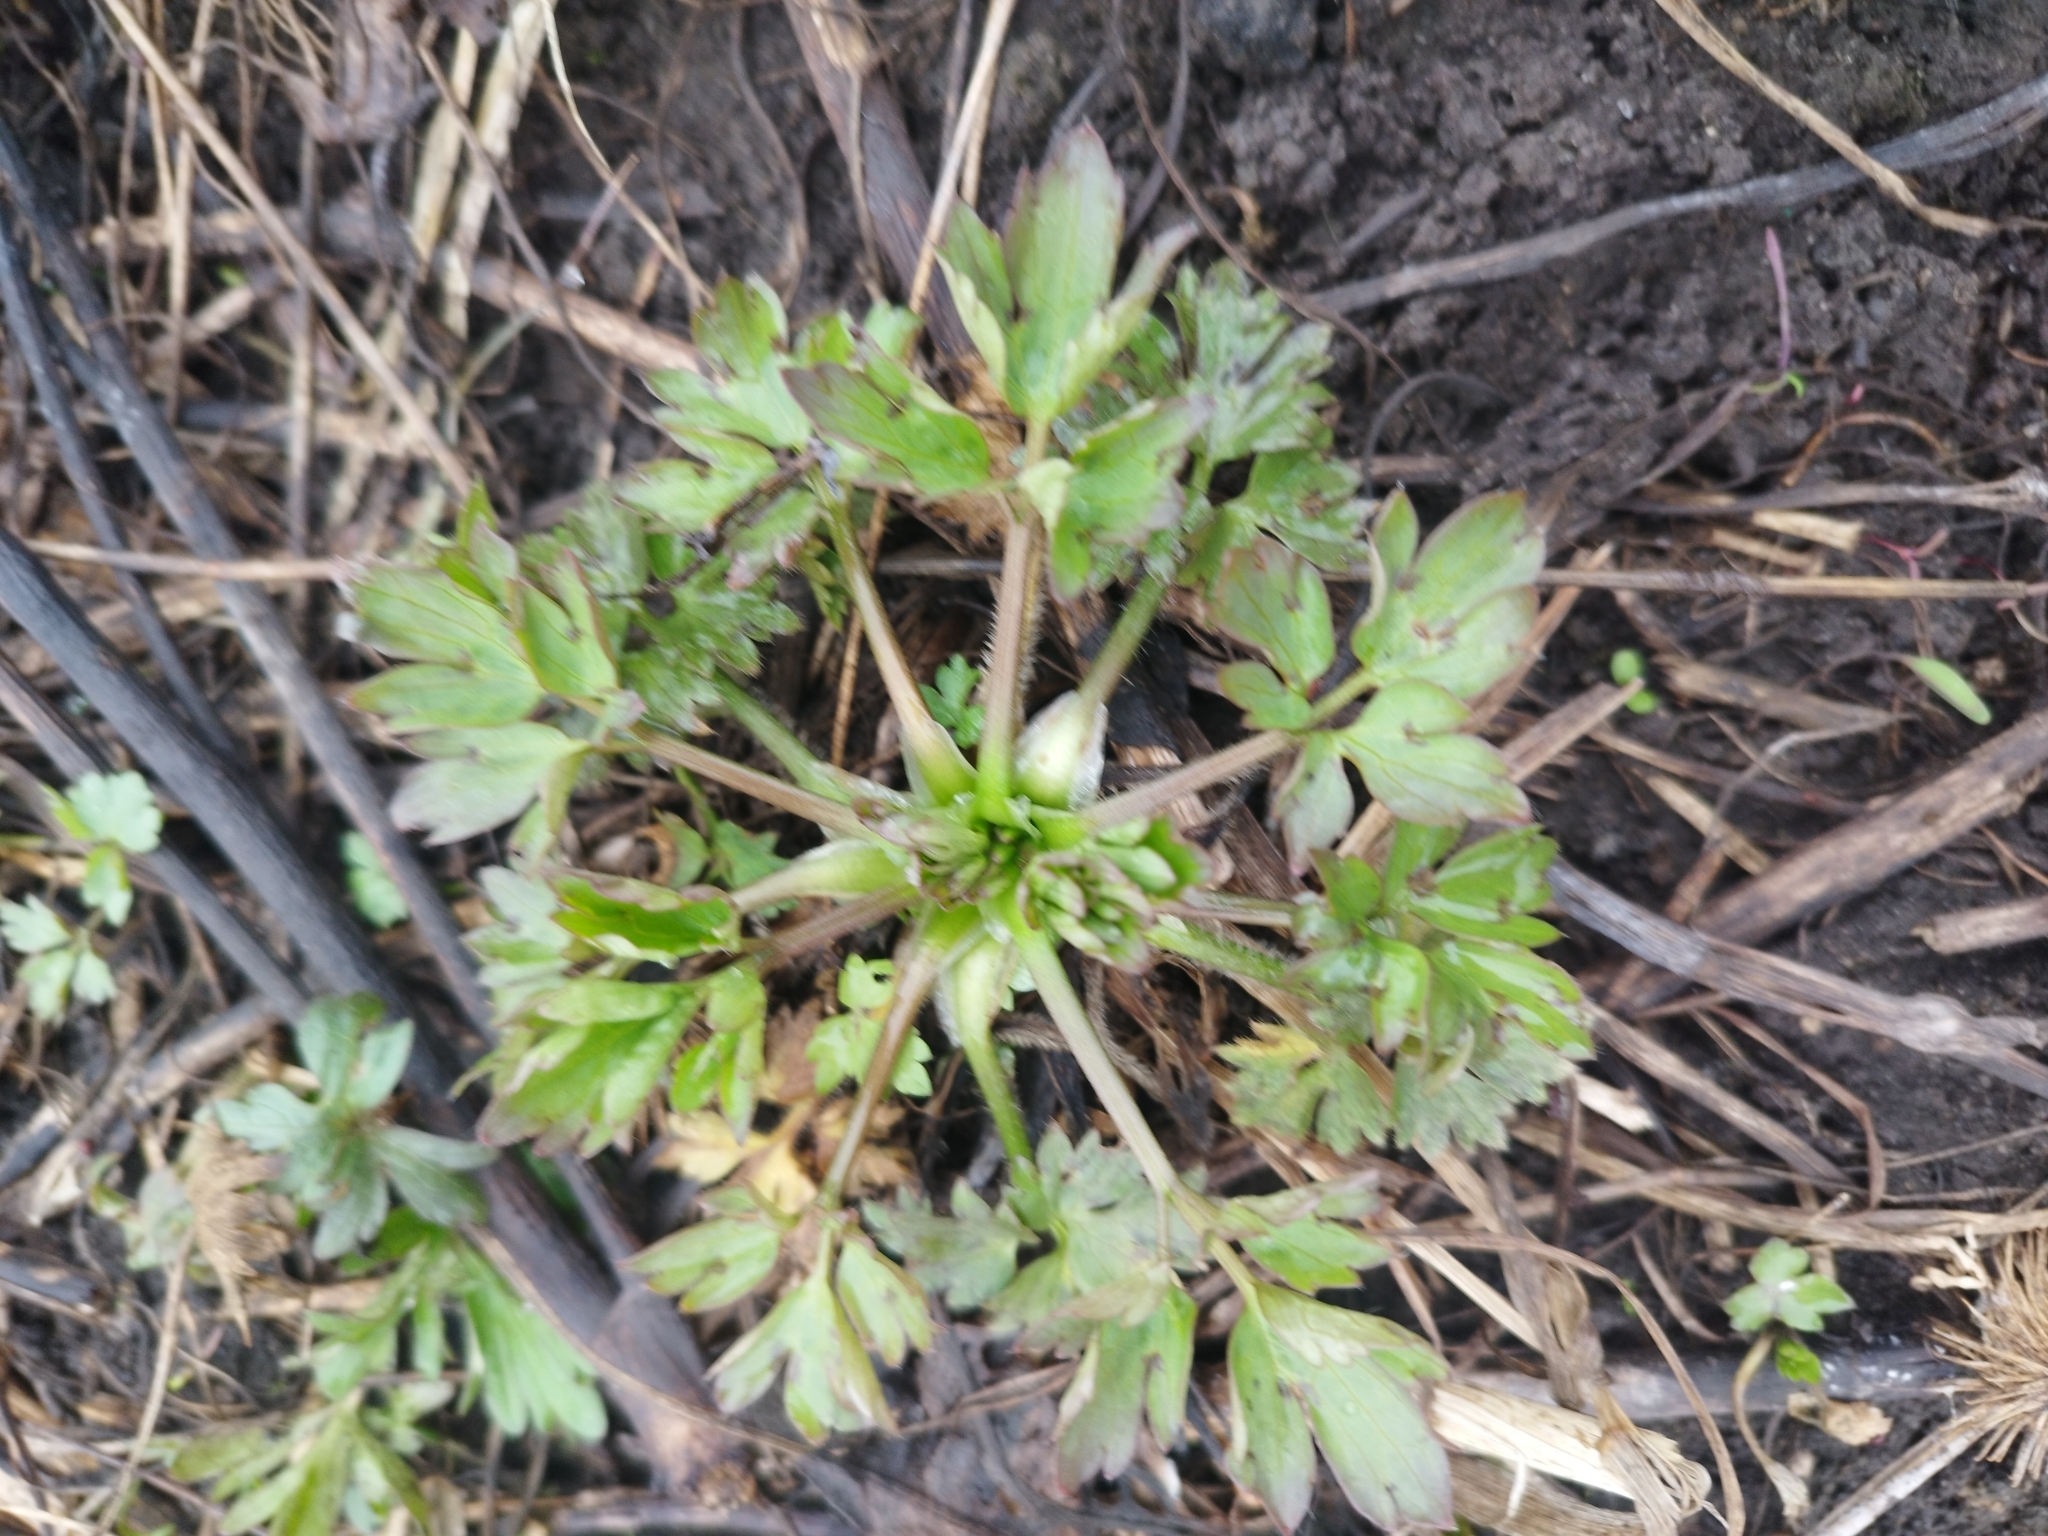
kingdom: Plantae
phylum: Tracheophyta
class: Magnoliopsida
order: Ranunculales
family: Ranunculaceae
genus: Ranunculus
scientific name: Ranunculus repens
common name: Creeping buttercup
